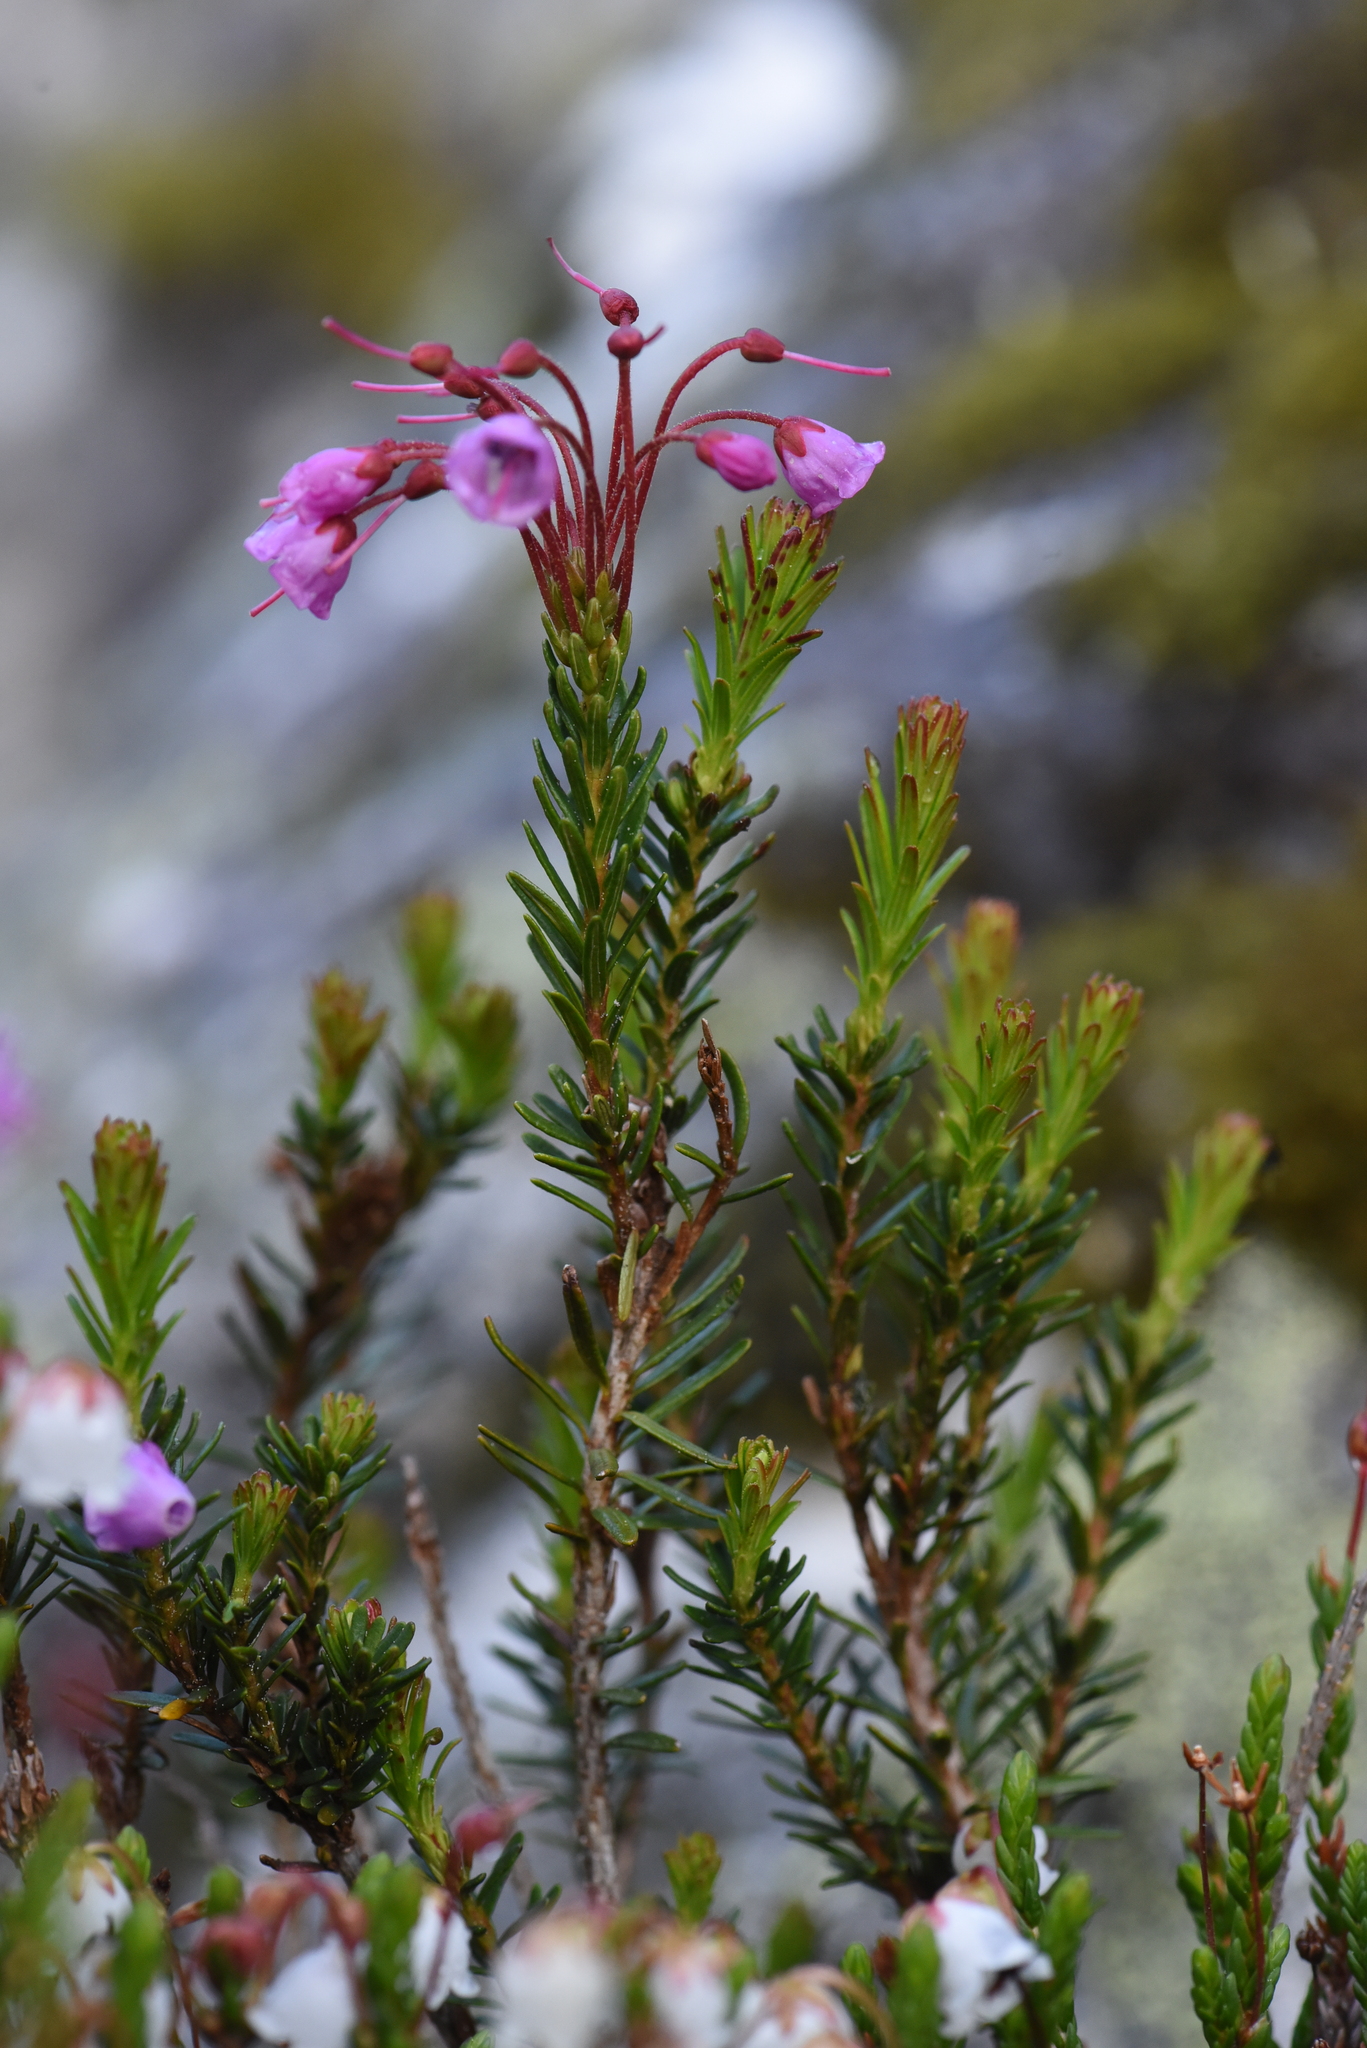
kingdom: Plantae
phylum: Tracheophyta
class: Magnoliopsida
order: Ericales
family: Ericaceae
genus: Phyllodoce
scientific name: Phyllodoce empetriformis
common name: Pink mountain heather
